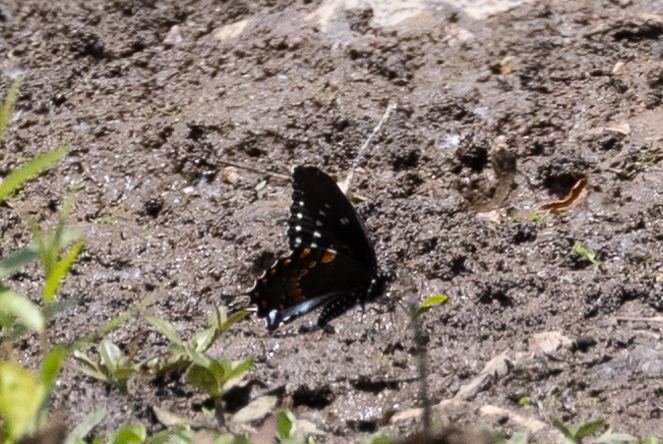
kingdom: Animalia
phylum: Arthropoda
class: Insecta
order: Lepidoptera
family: Papilionidae
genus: Papilio
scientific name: Papilio troilus
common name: Spicebush swallowtail
